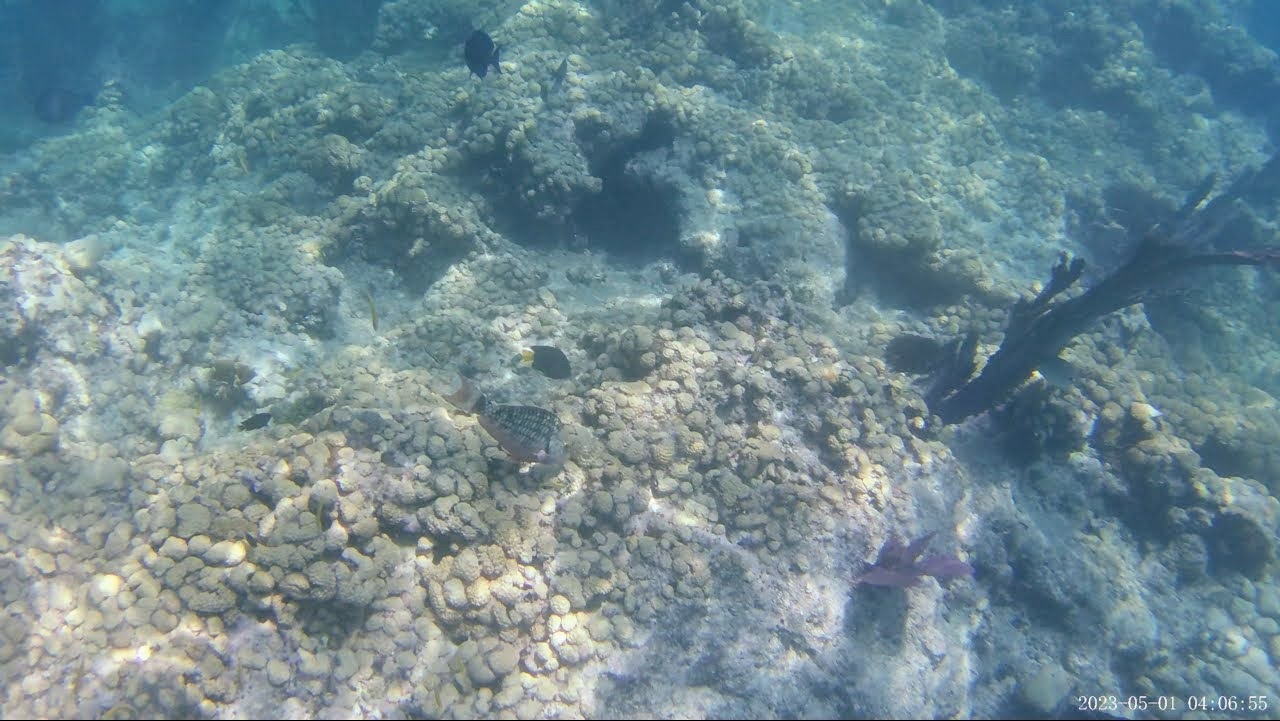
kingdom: Animalia
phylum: Chordata
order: Perciformes
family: Scaridae
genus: Sparisoma
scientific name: Sparisoma viride
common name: Stoplight parrotfish
